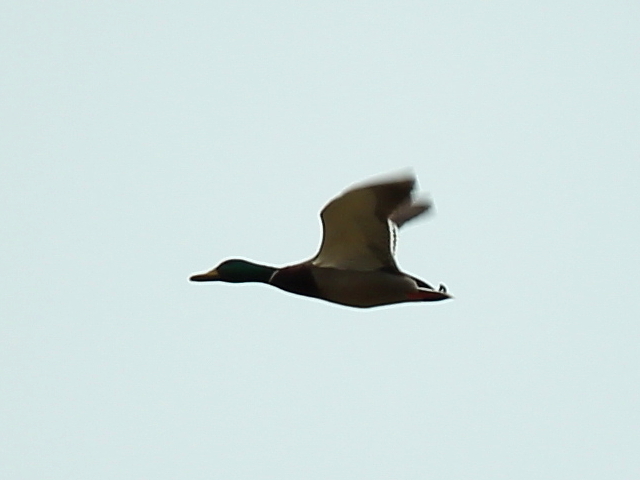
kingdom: Animalia
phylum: Chordata
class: Aves
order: Anseriformes
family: Anatidae
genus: Anas
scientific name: Anas platyrhynchos
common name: Mallard
